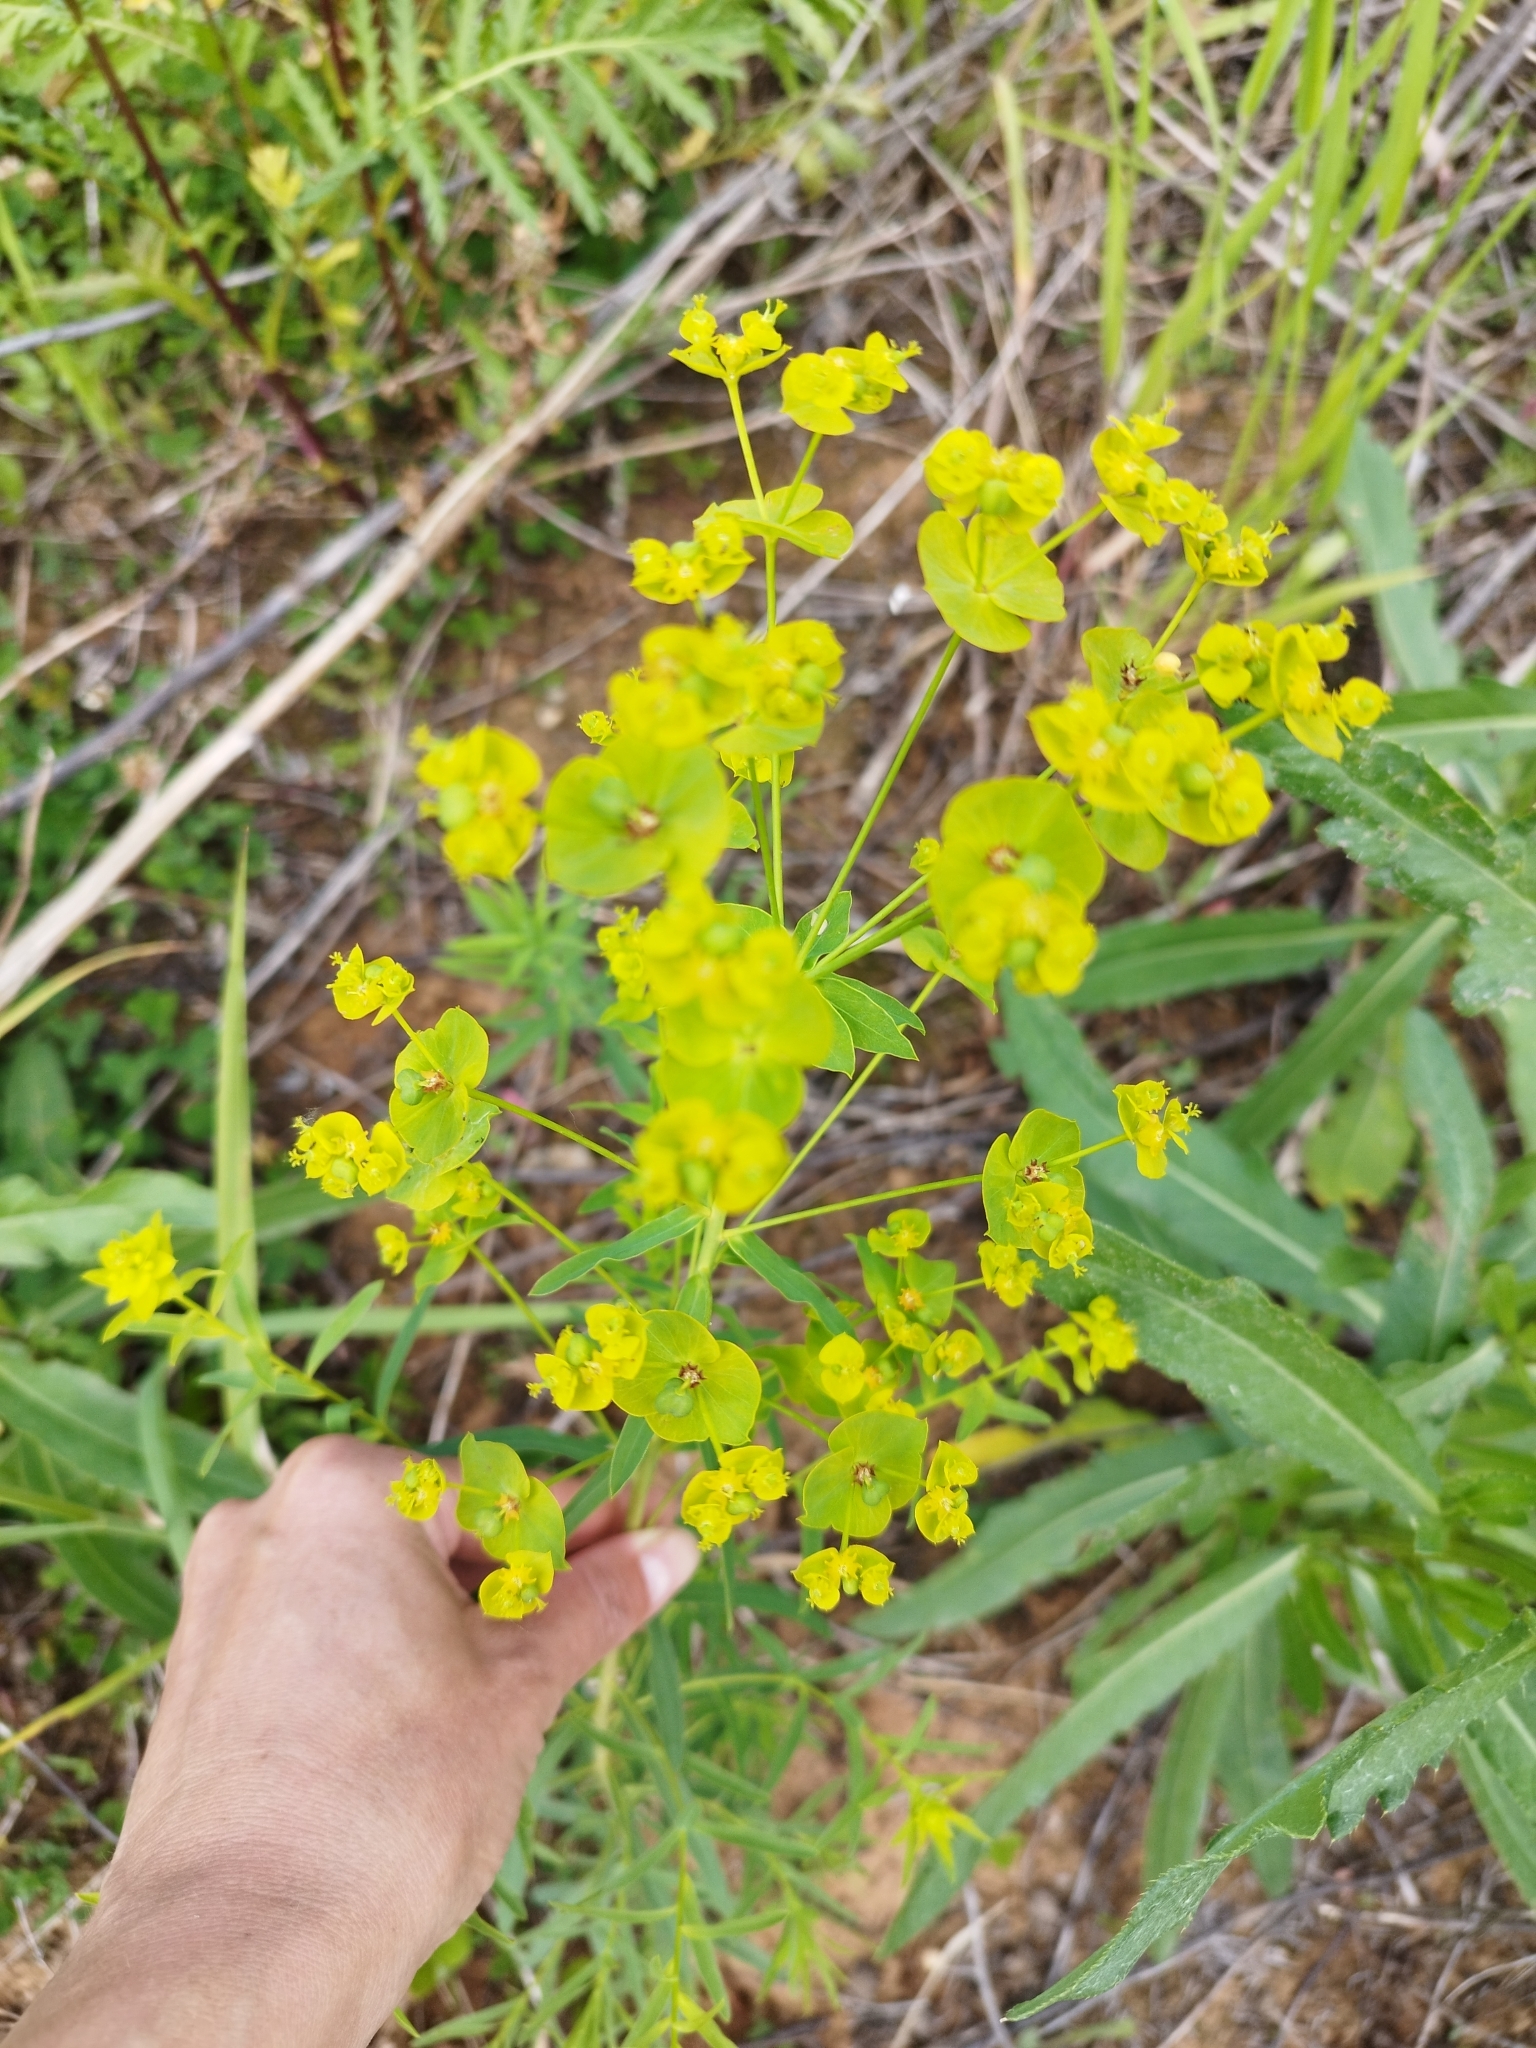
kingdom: Plantae
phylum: Tracheophyta
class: Magnoliopsida
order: Malpighiales
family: Euphorbiaceae
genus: Euphorbia
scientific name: Euphorbia virgata
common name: Leafy spurge
